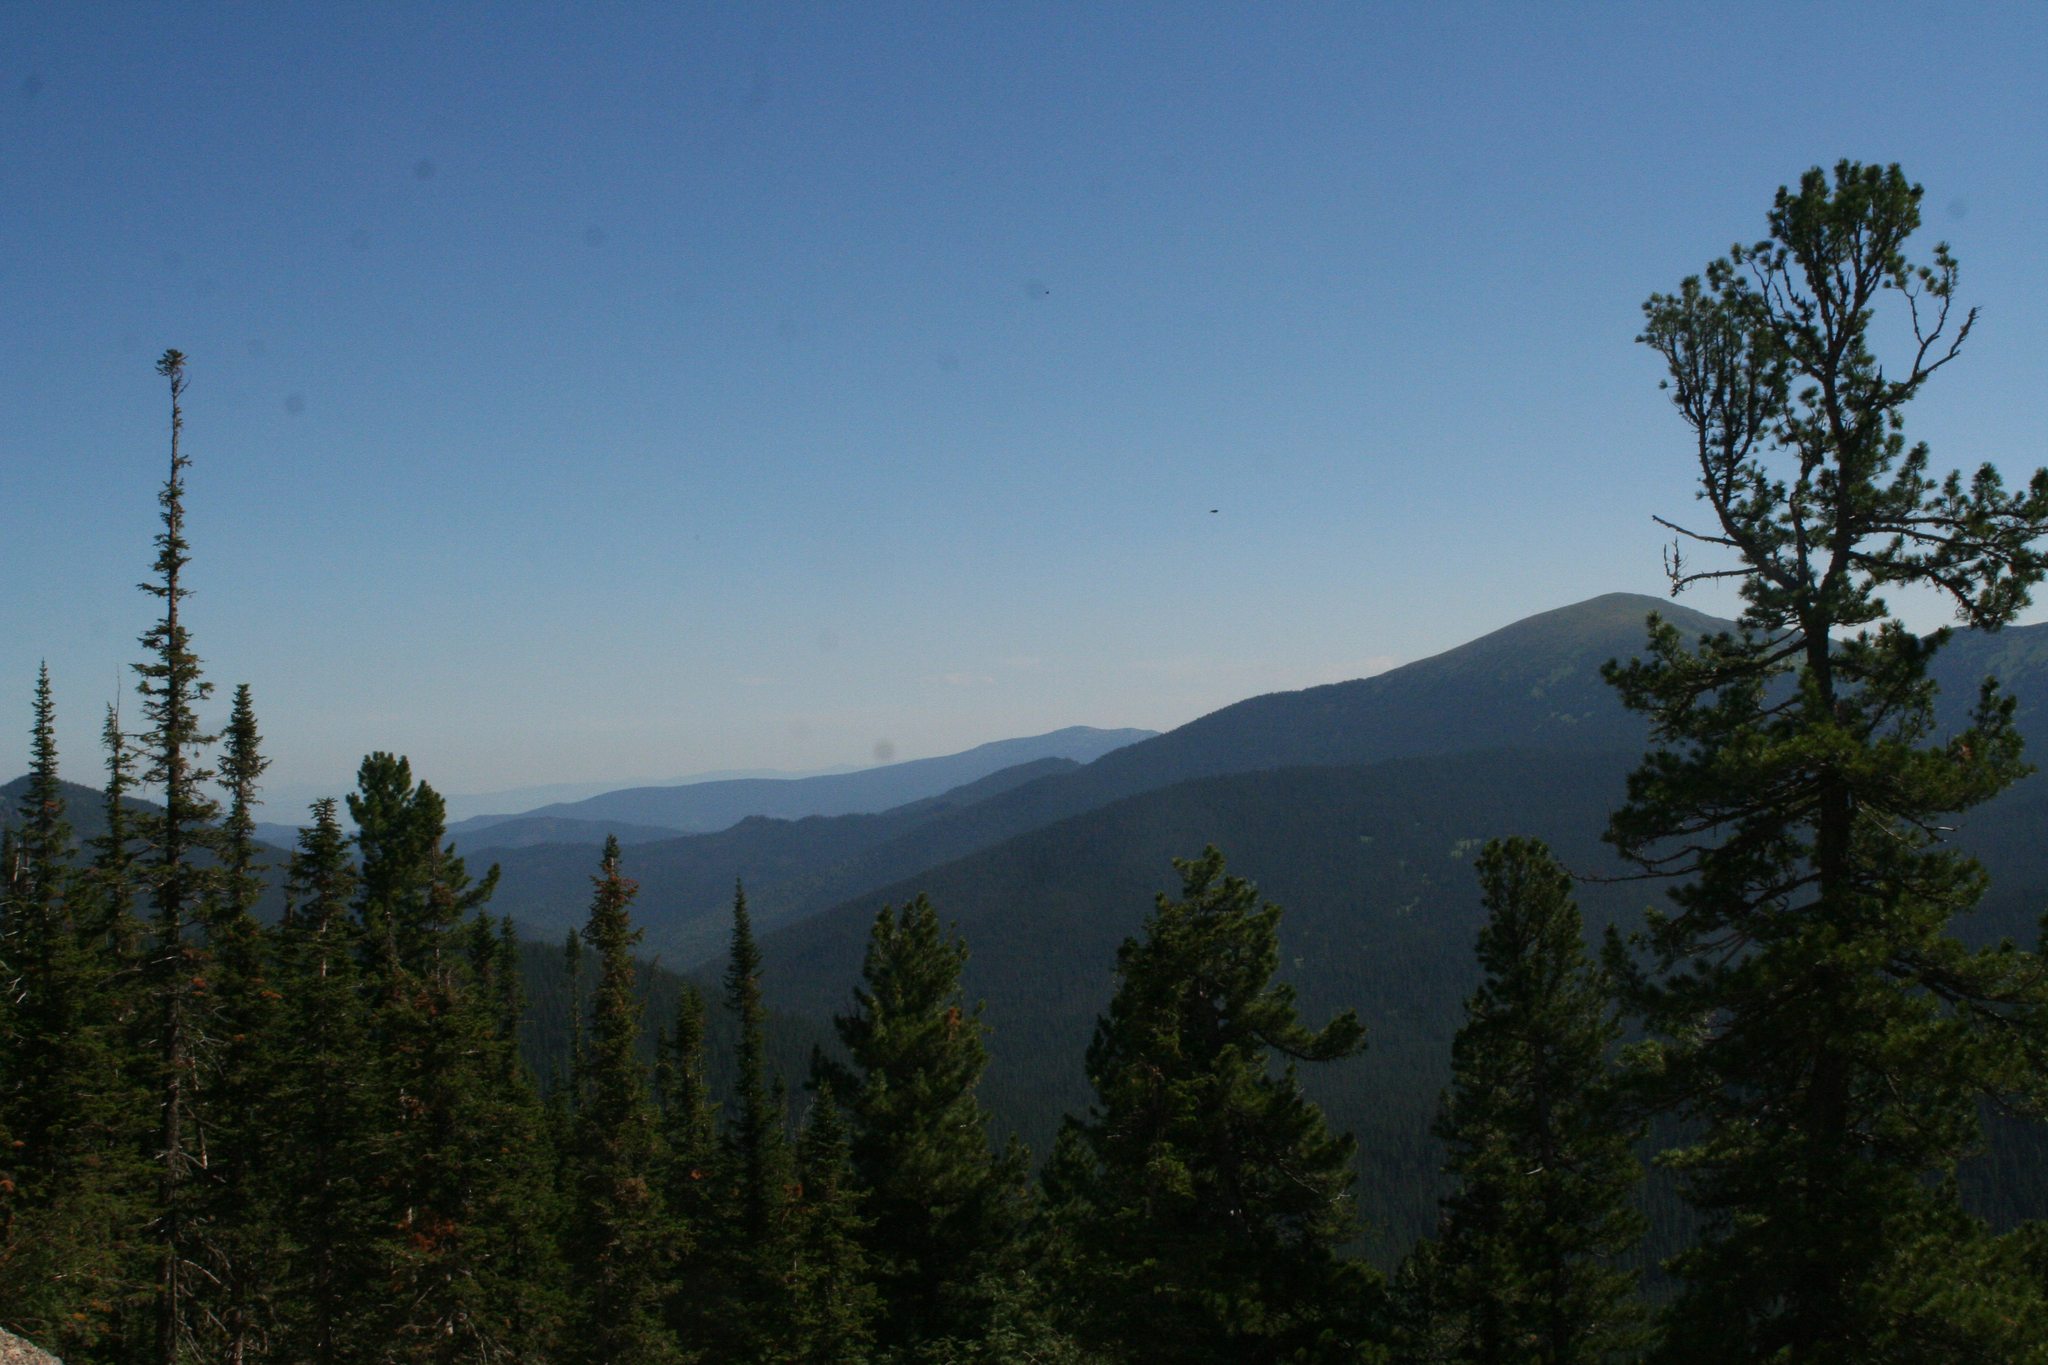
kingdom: Plantae
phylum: Tracheophyta
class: Pinopsida
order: Pinales
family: Pinaceae
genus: Pinus
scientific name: Pinus sibirica
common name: Siberian pine
